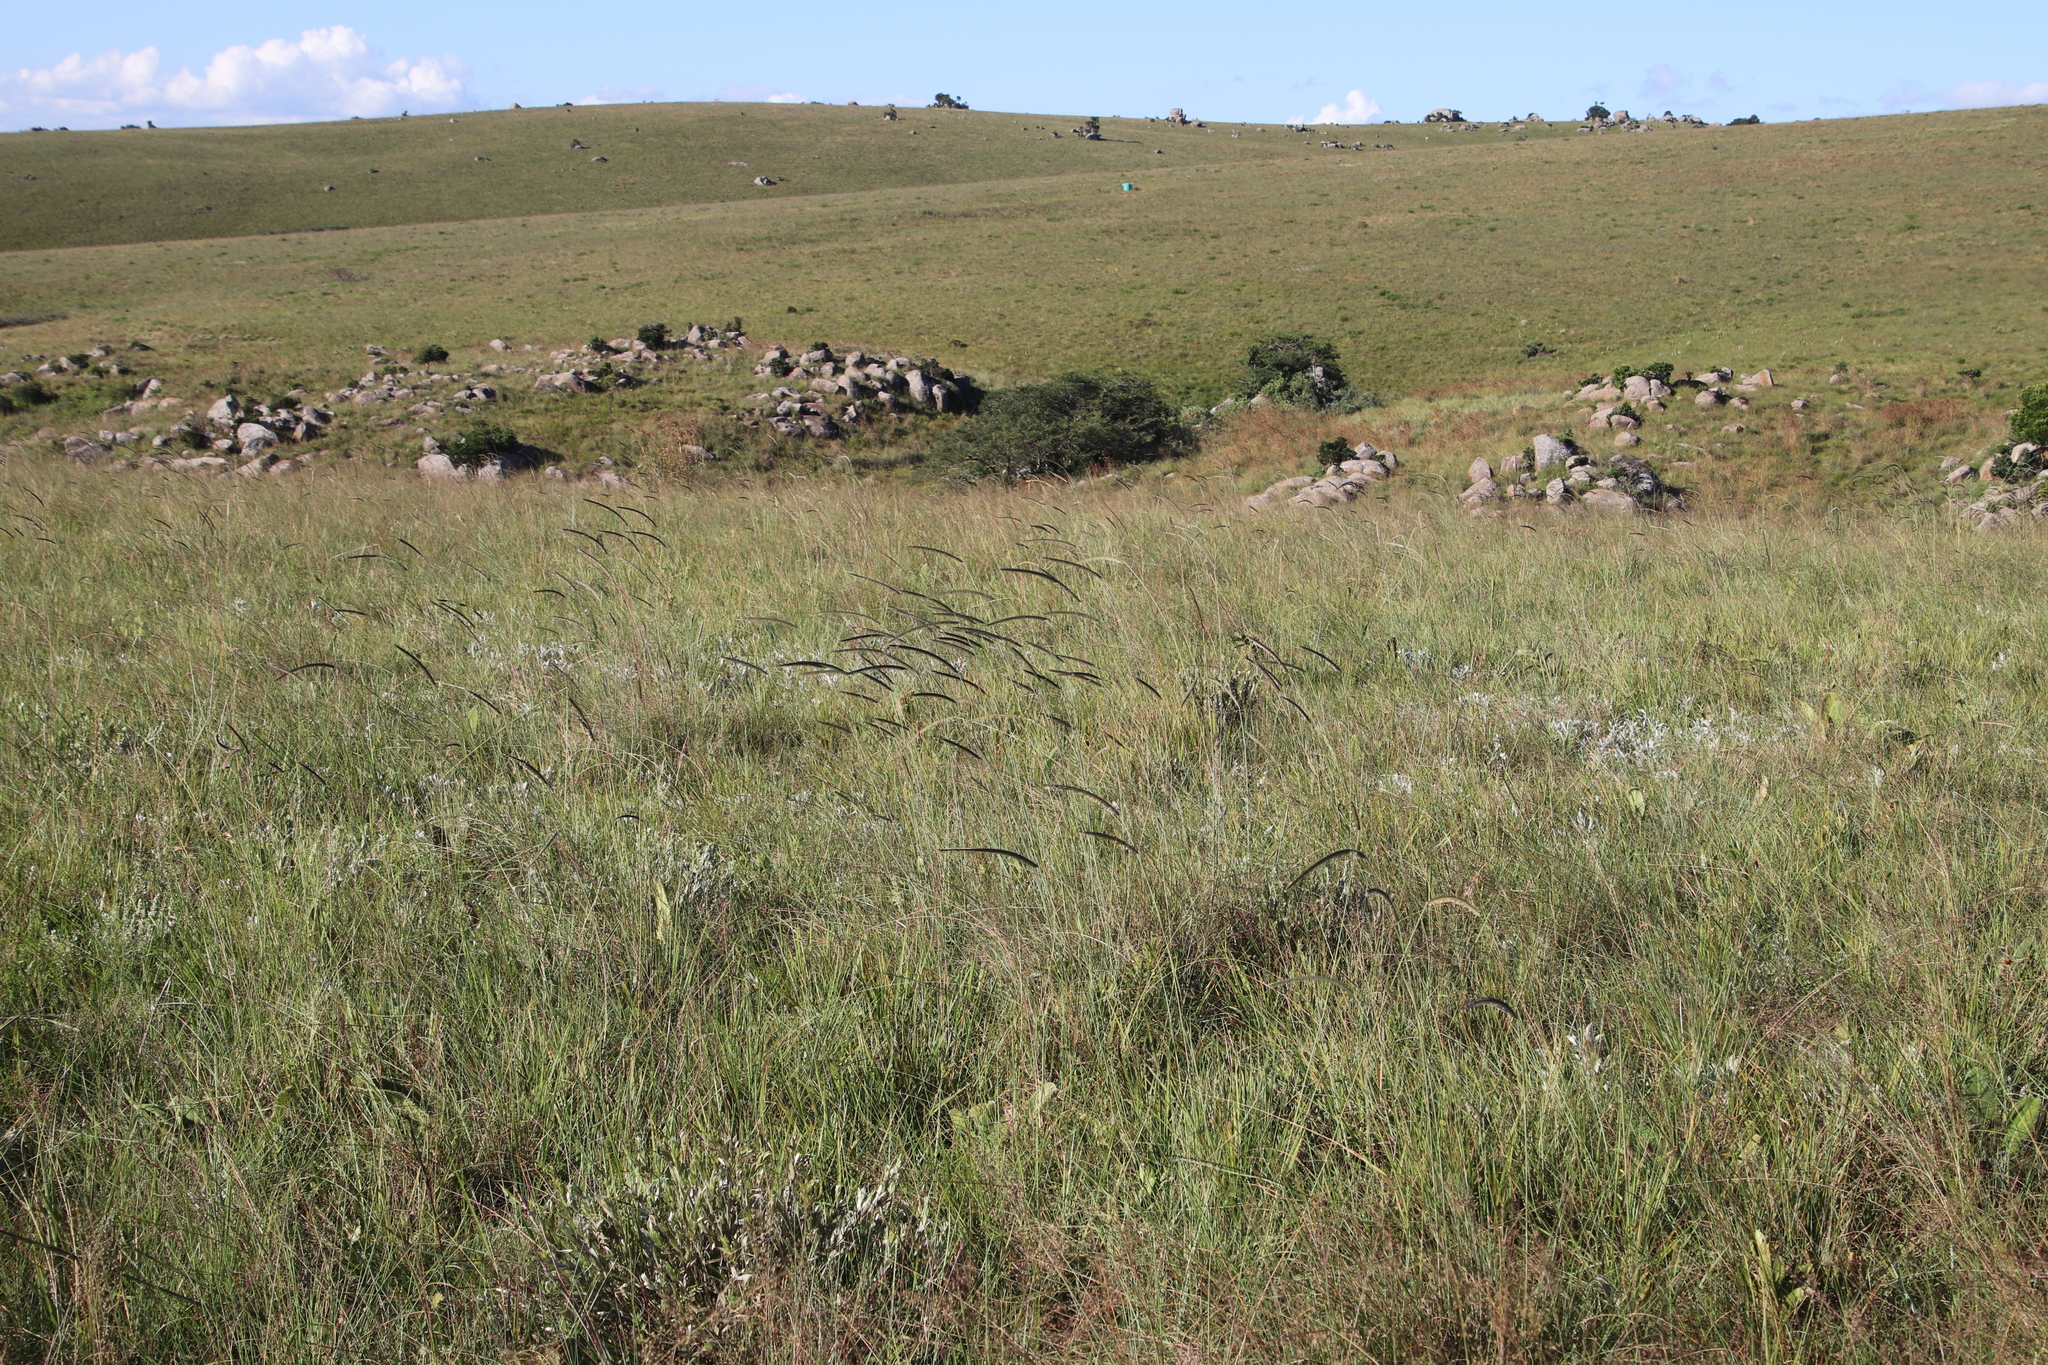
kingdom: Plantae
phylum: Tracheophyta
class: Liliopsida
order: Poales
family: Poaceae
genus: Ctenium
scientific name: Ctenium concinnum
